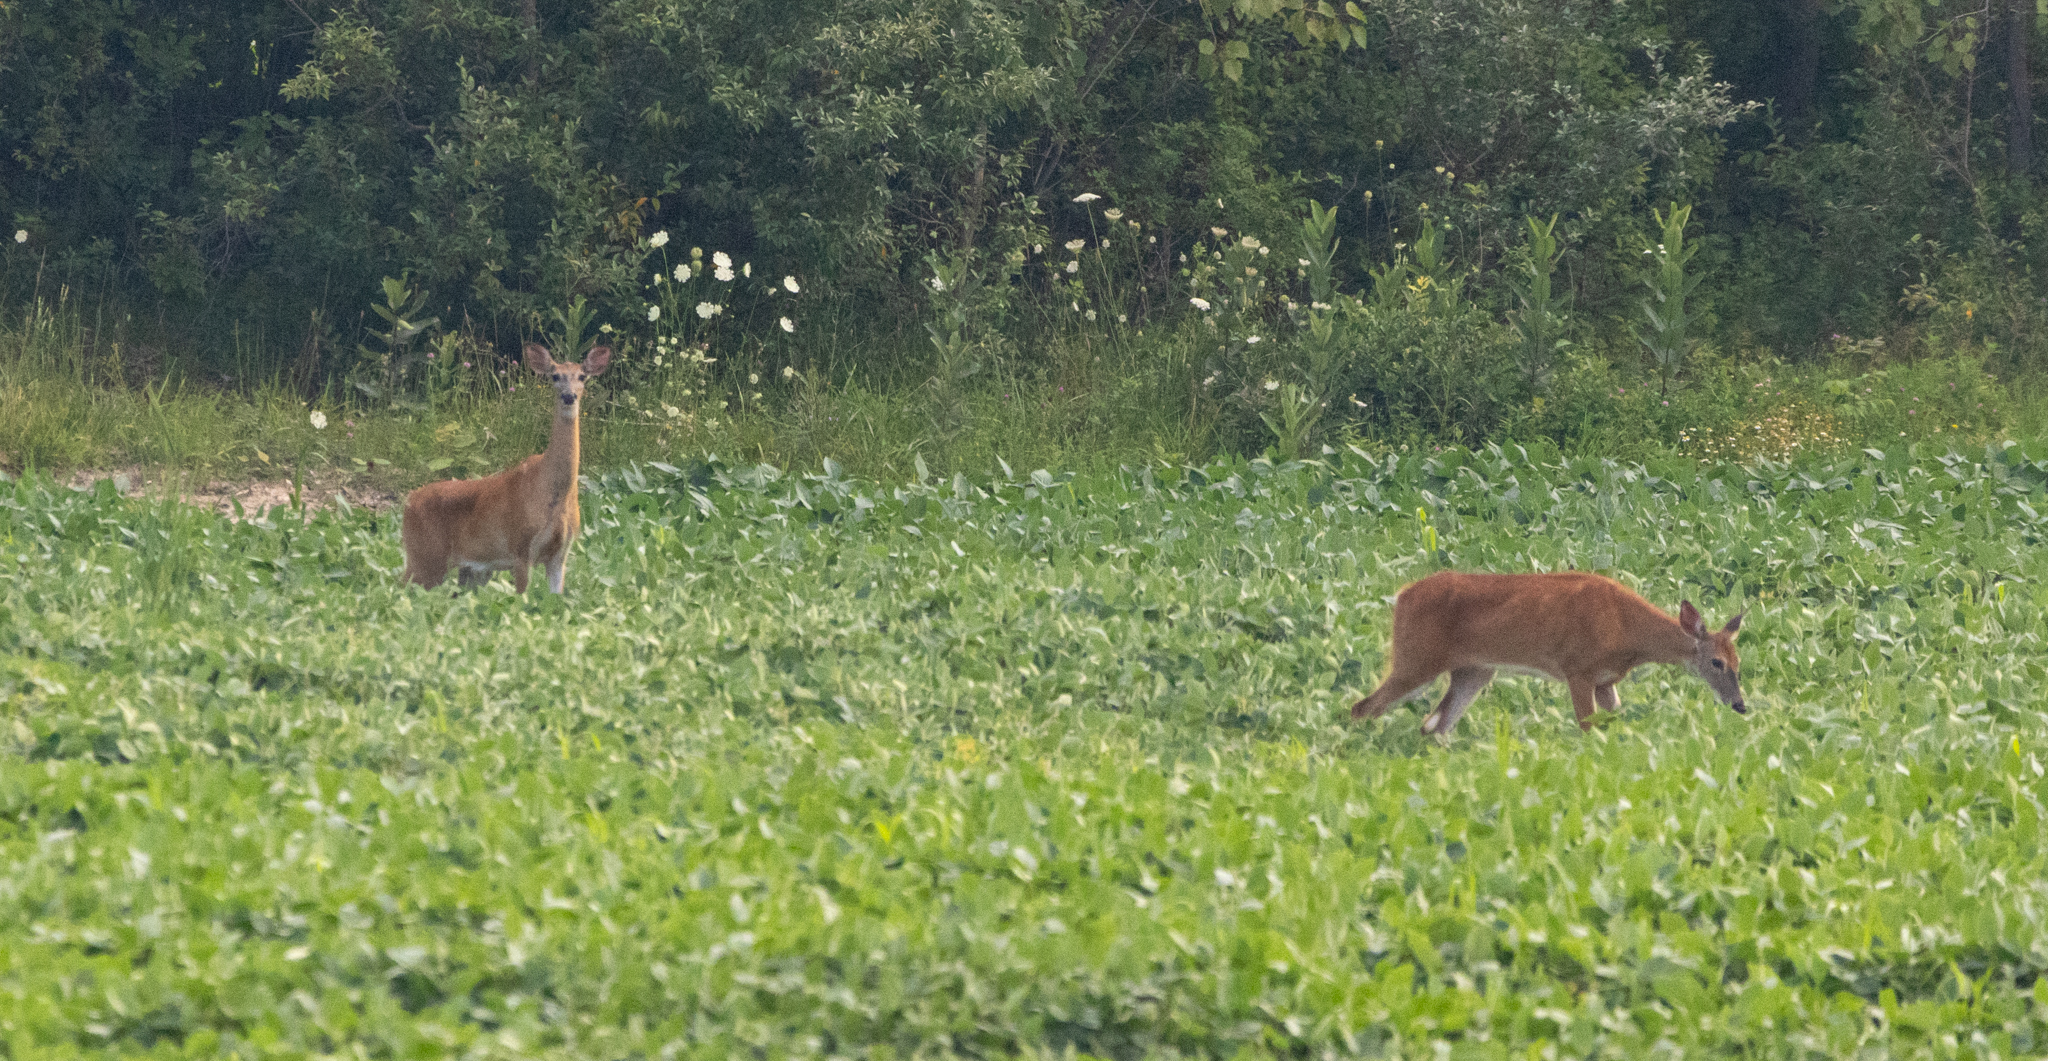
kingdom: Animalia
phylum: Chordata
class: Mammalia
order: Artiodactyla
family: Cervidae
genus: Odocoileus
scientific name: Odocoileus virginianus
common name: White-tailed deer
